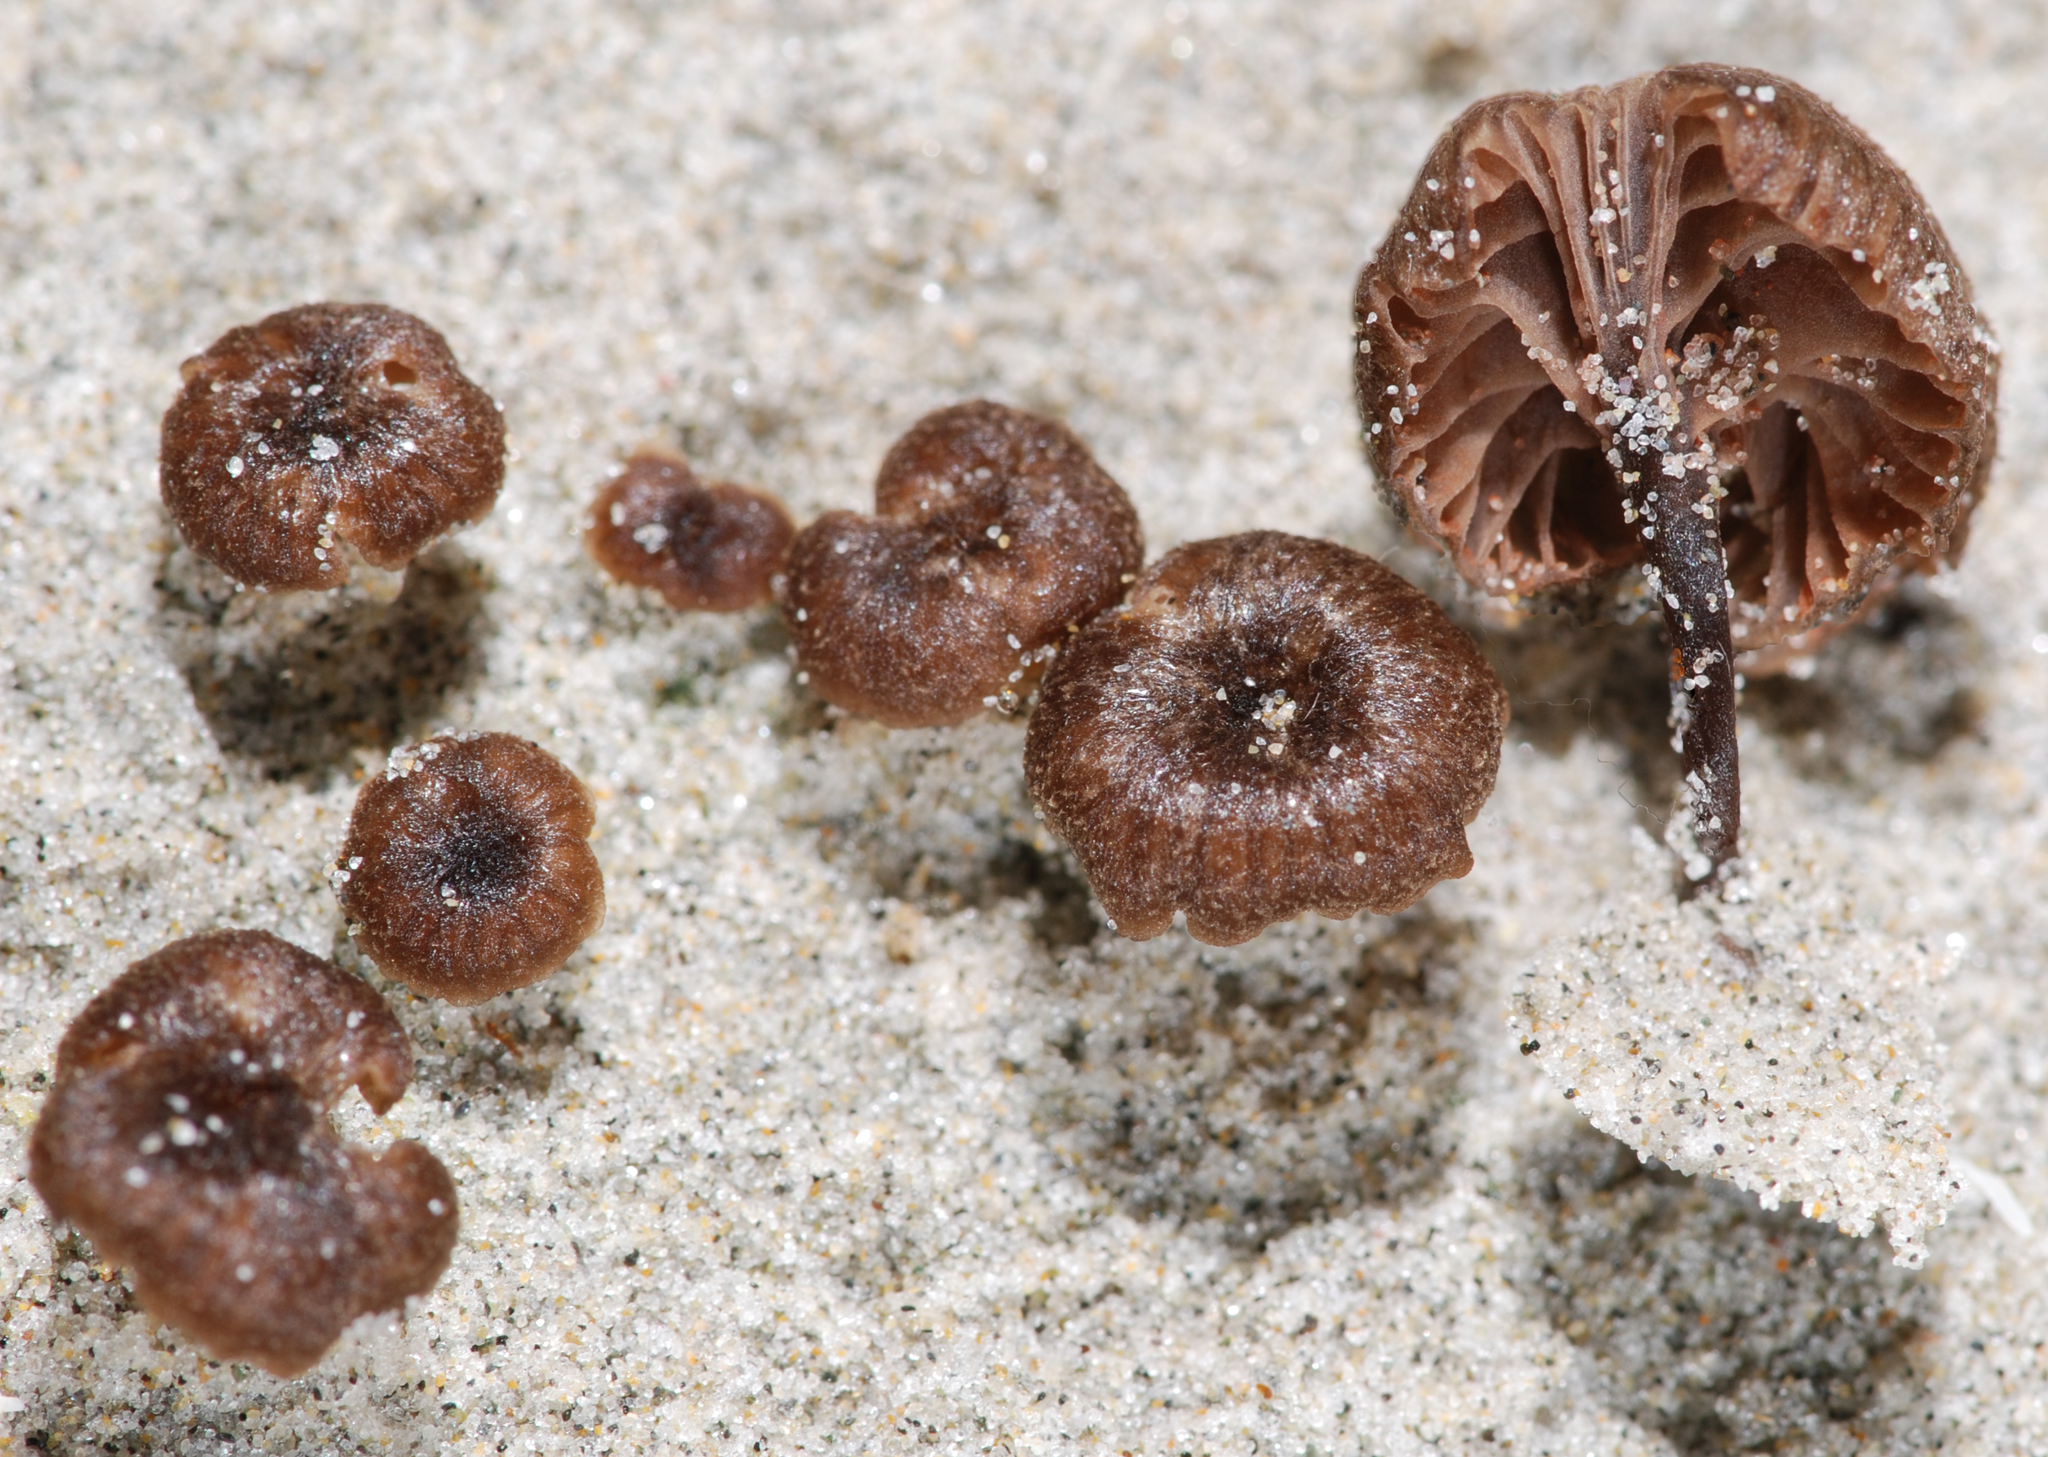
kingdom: Fungi
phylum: Basidiomycota
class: Agaricomycetes
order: Agaricales
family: Entolomataceae
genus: Entoloma
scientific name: Entoloma graphitipes
